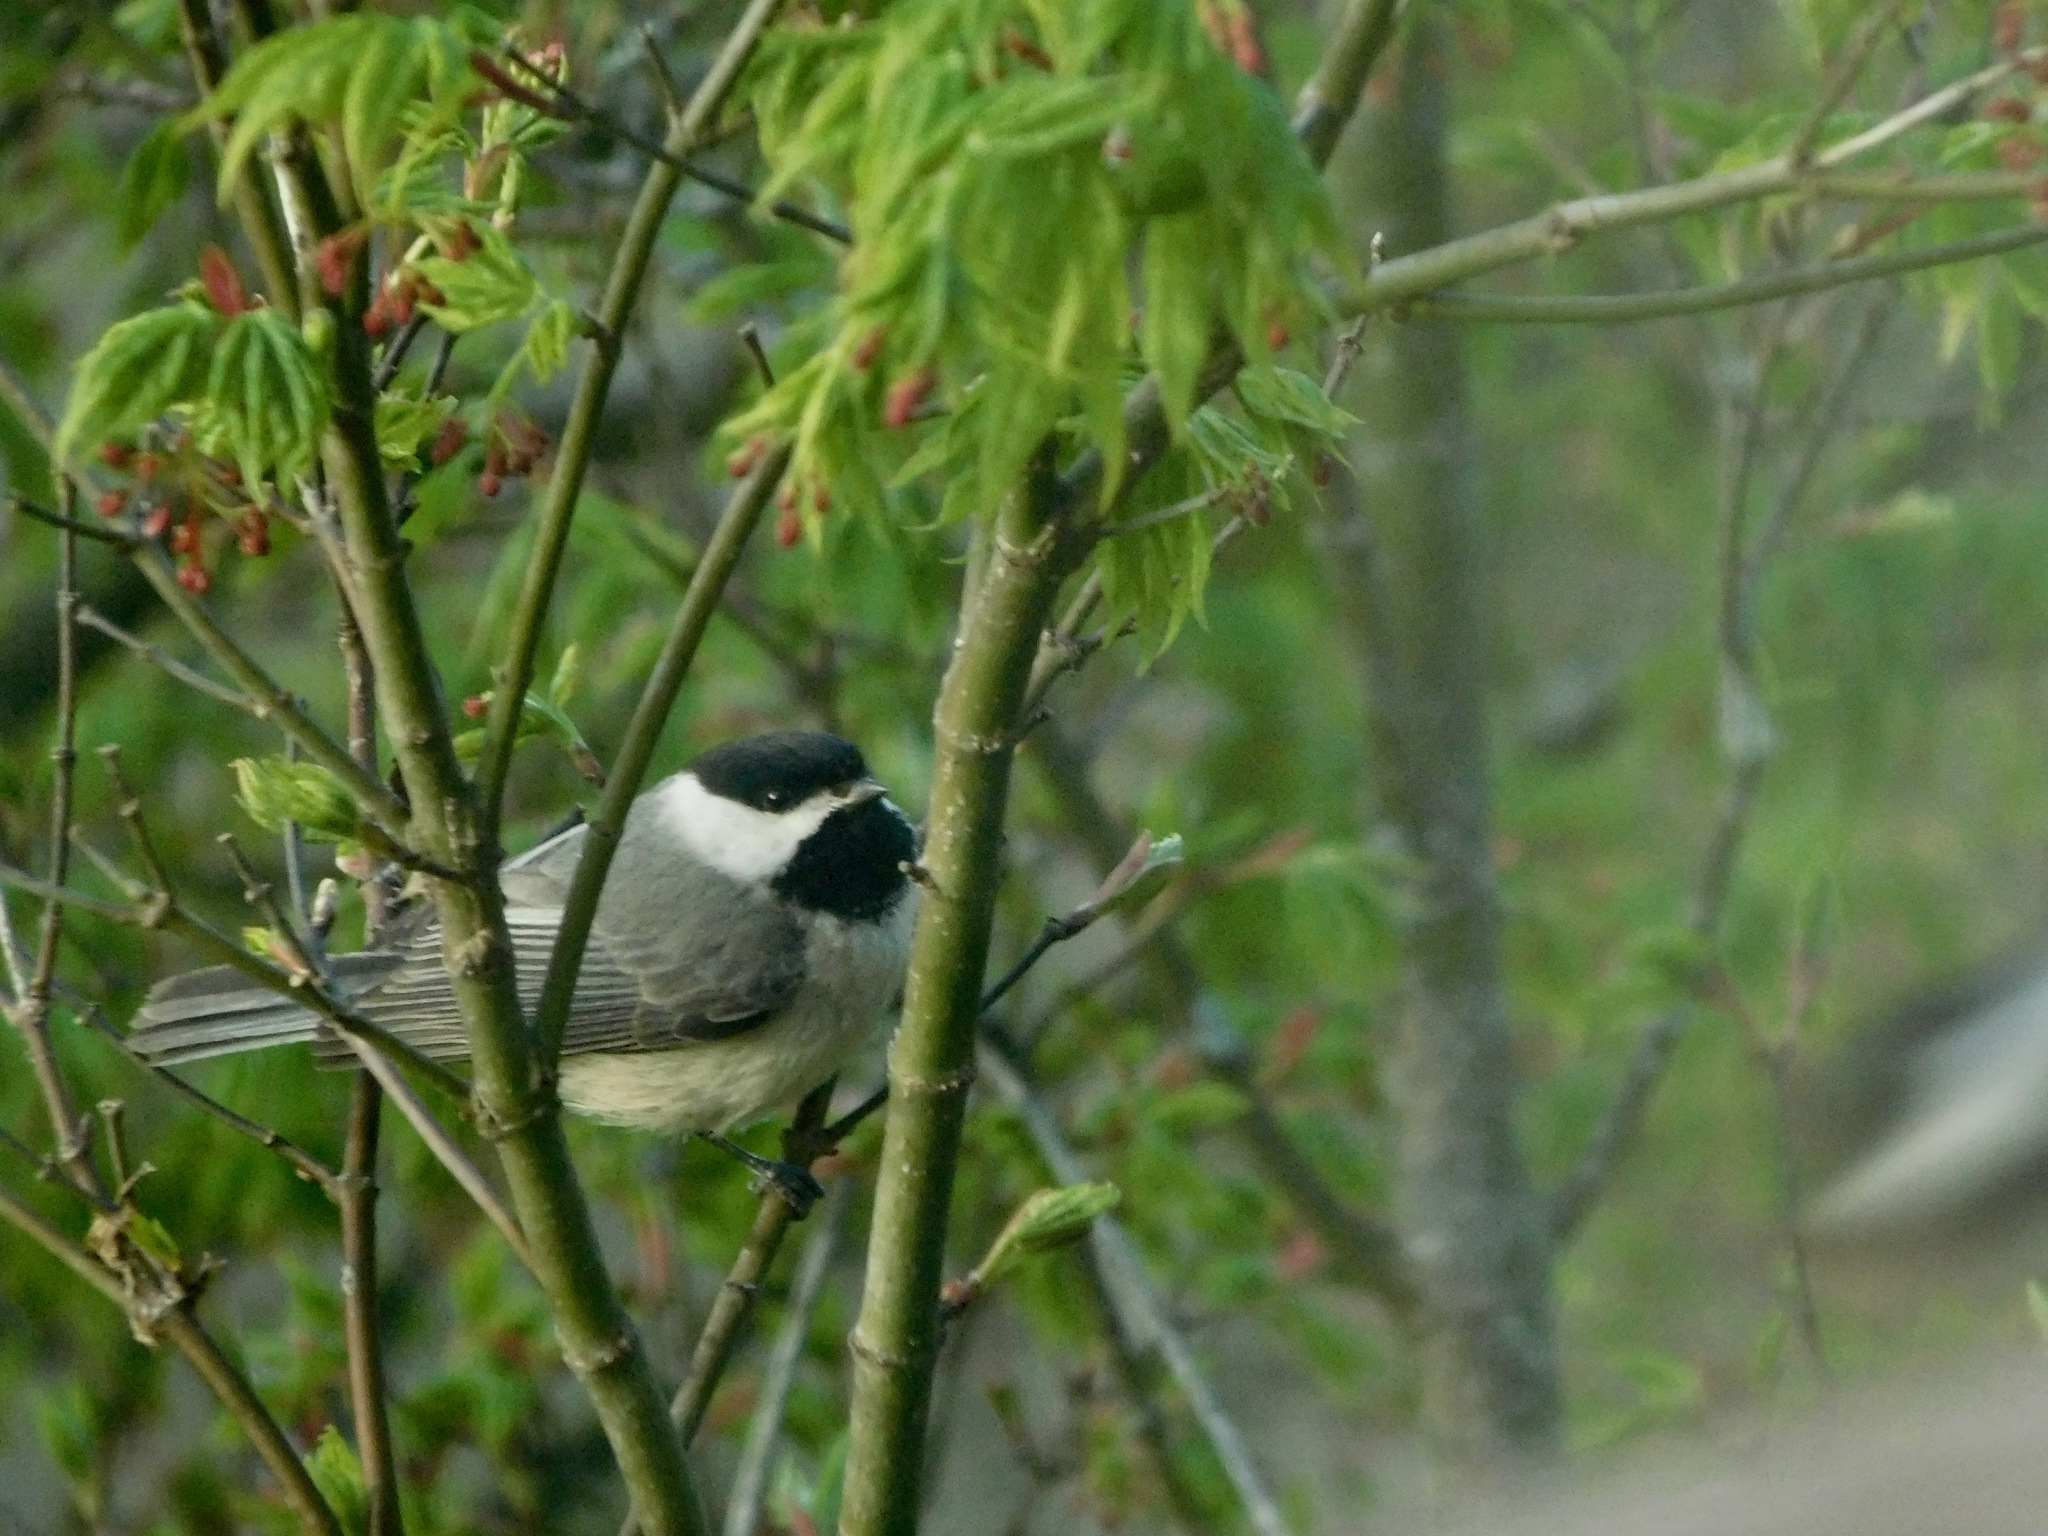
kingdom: Animalia
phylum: Chordata
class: Aves
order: Passeriformes
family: Paridae
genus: Poecile
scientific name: Poecile carolinensis
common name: Carolina chickadee
